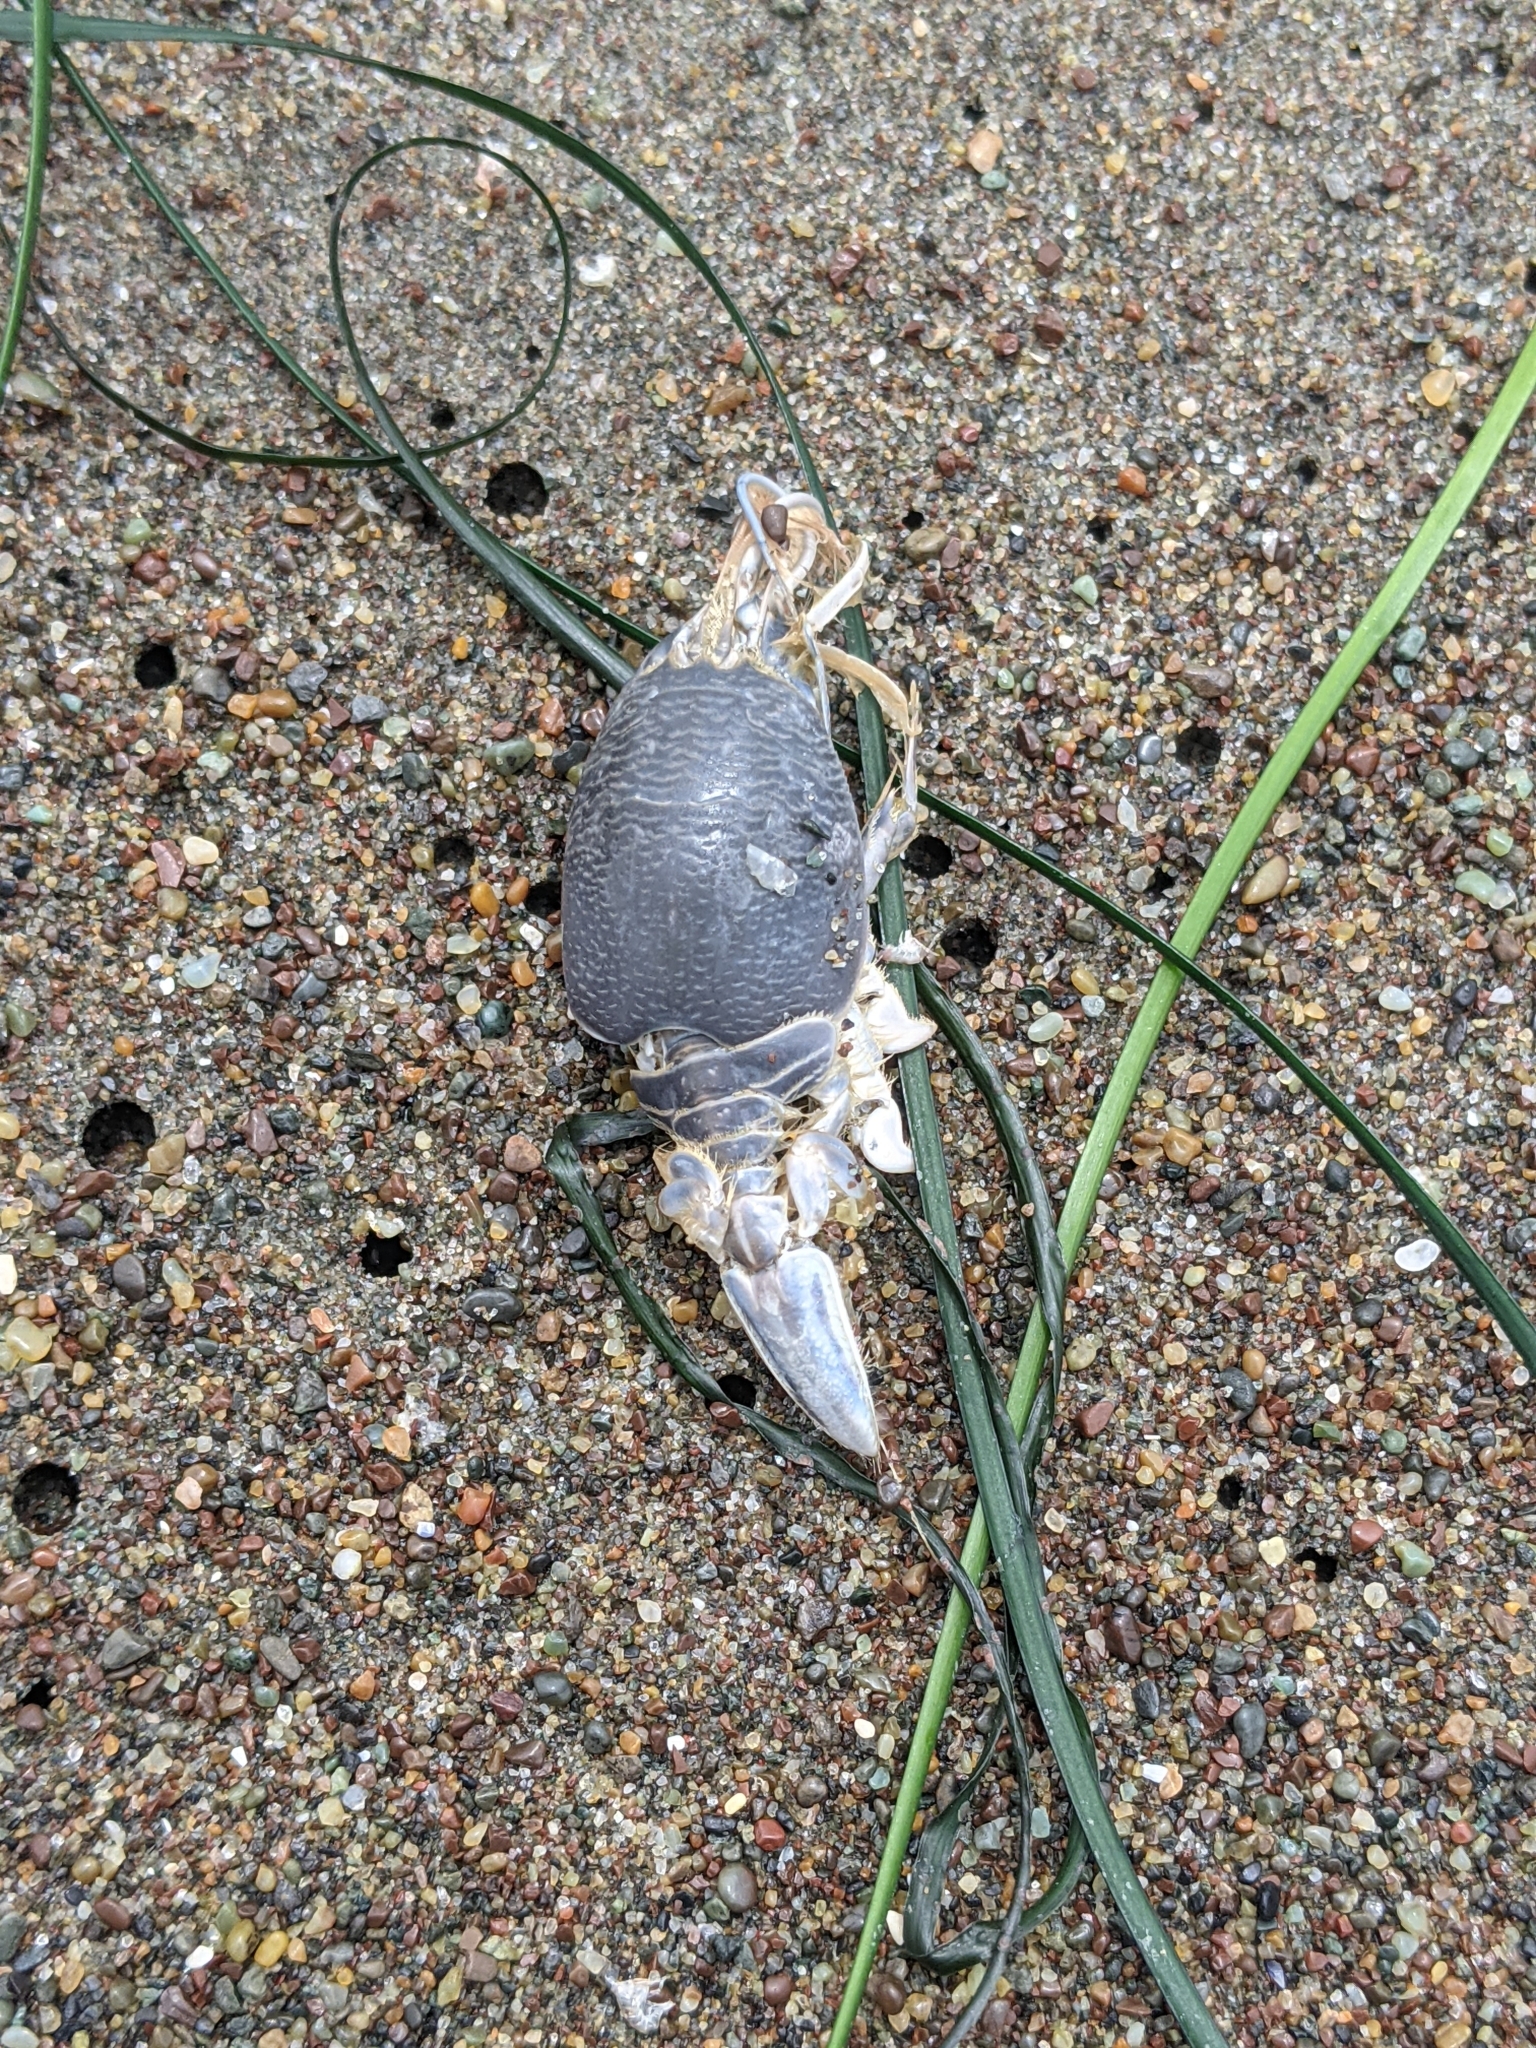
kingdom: Animalia
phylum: Arthropoda
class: Malacostraca
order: Decapoda
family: Hippidae
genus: Emerita
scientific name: Emerita analoga
